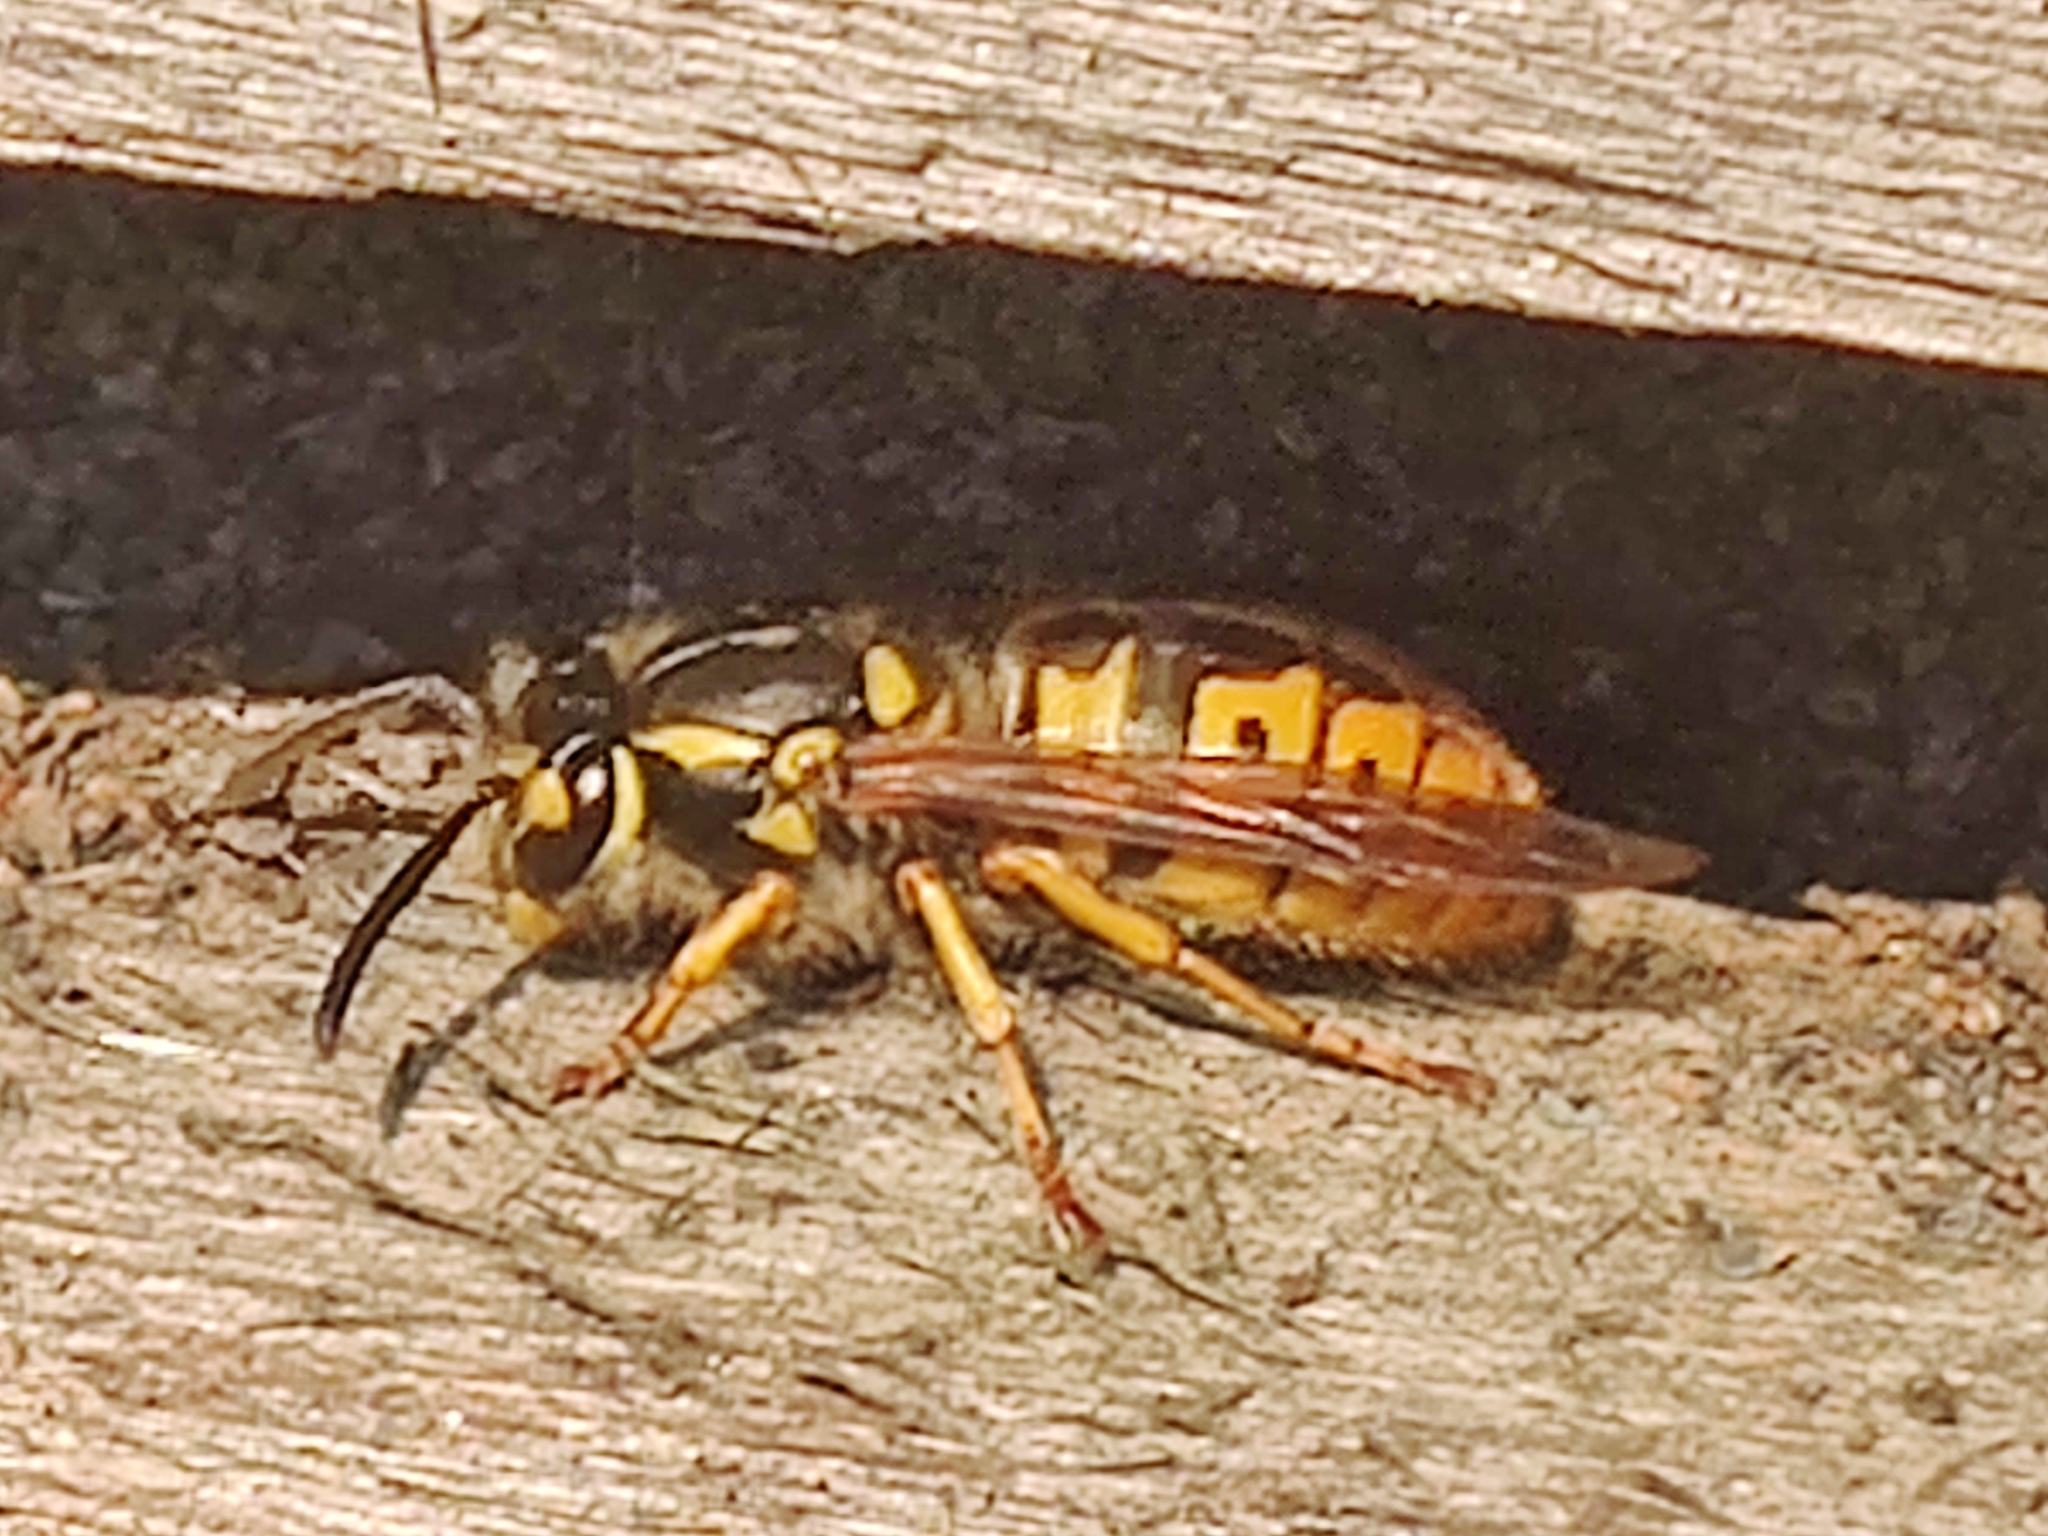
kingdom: Animalia
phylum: Arthropoda
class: Insecta
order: Hymenoptera
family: Vespidae
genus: Vespula
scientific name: Vespula germanica
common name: German wasp
